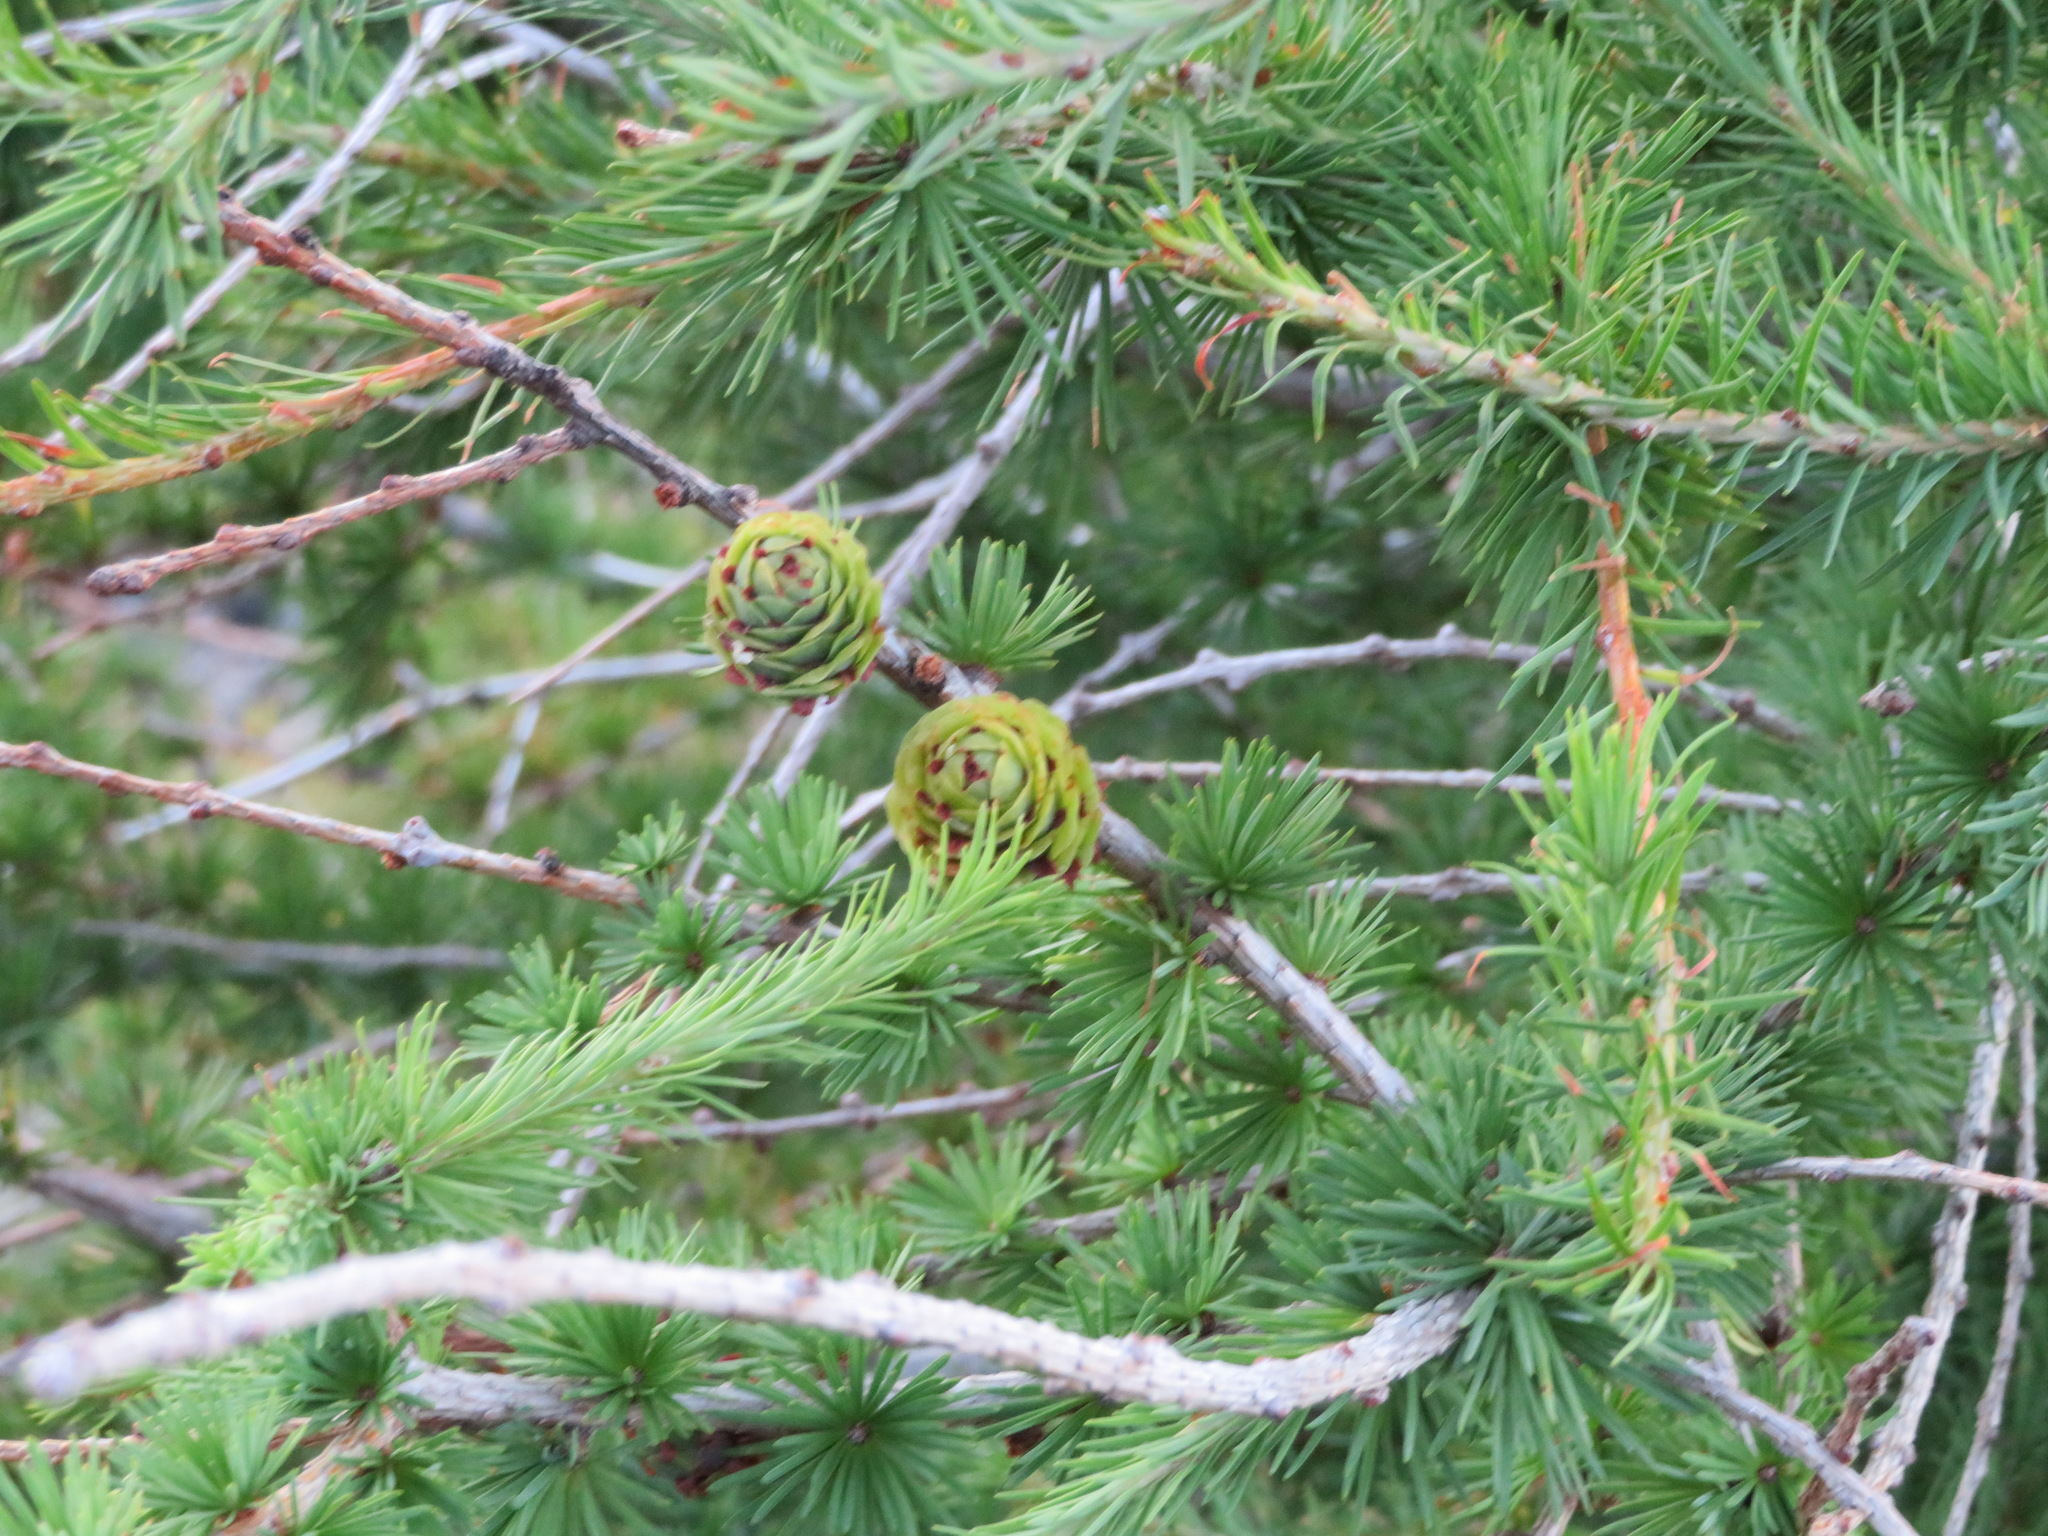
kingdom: Plantae
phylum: Tracheophyta
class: Pinopsida
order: Pinales
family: Pinaceae
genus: Larix
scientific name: Larix kaempferi
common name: Japanese larch
